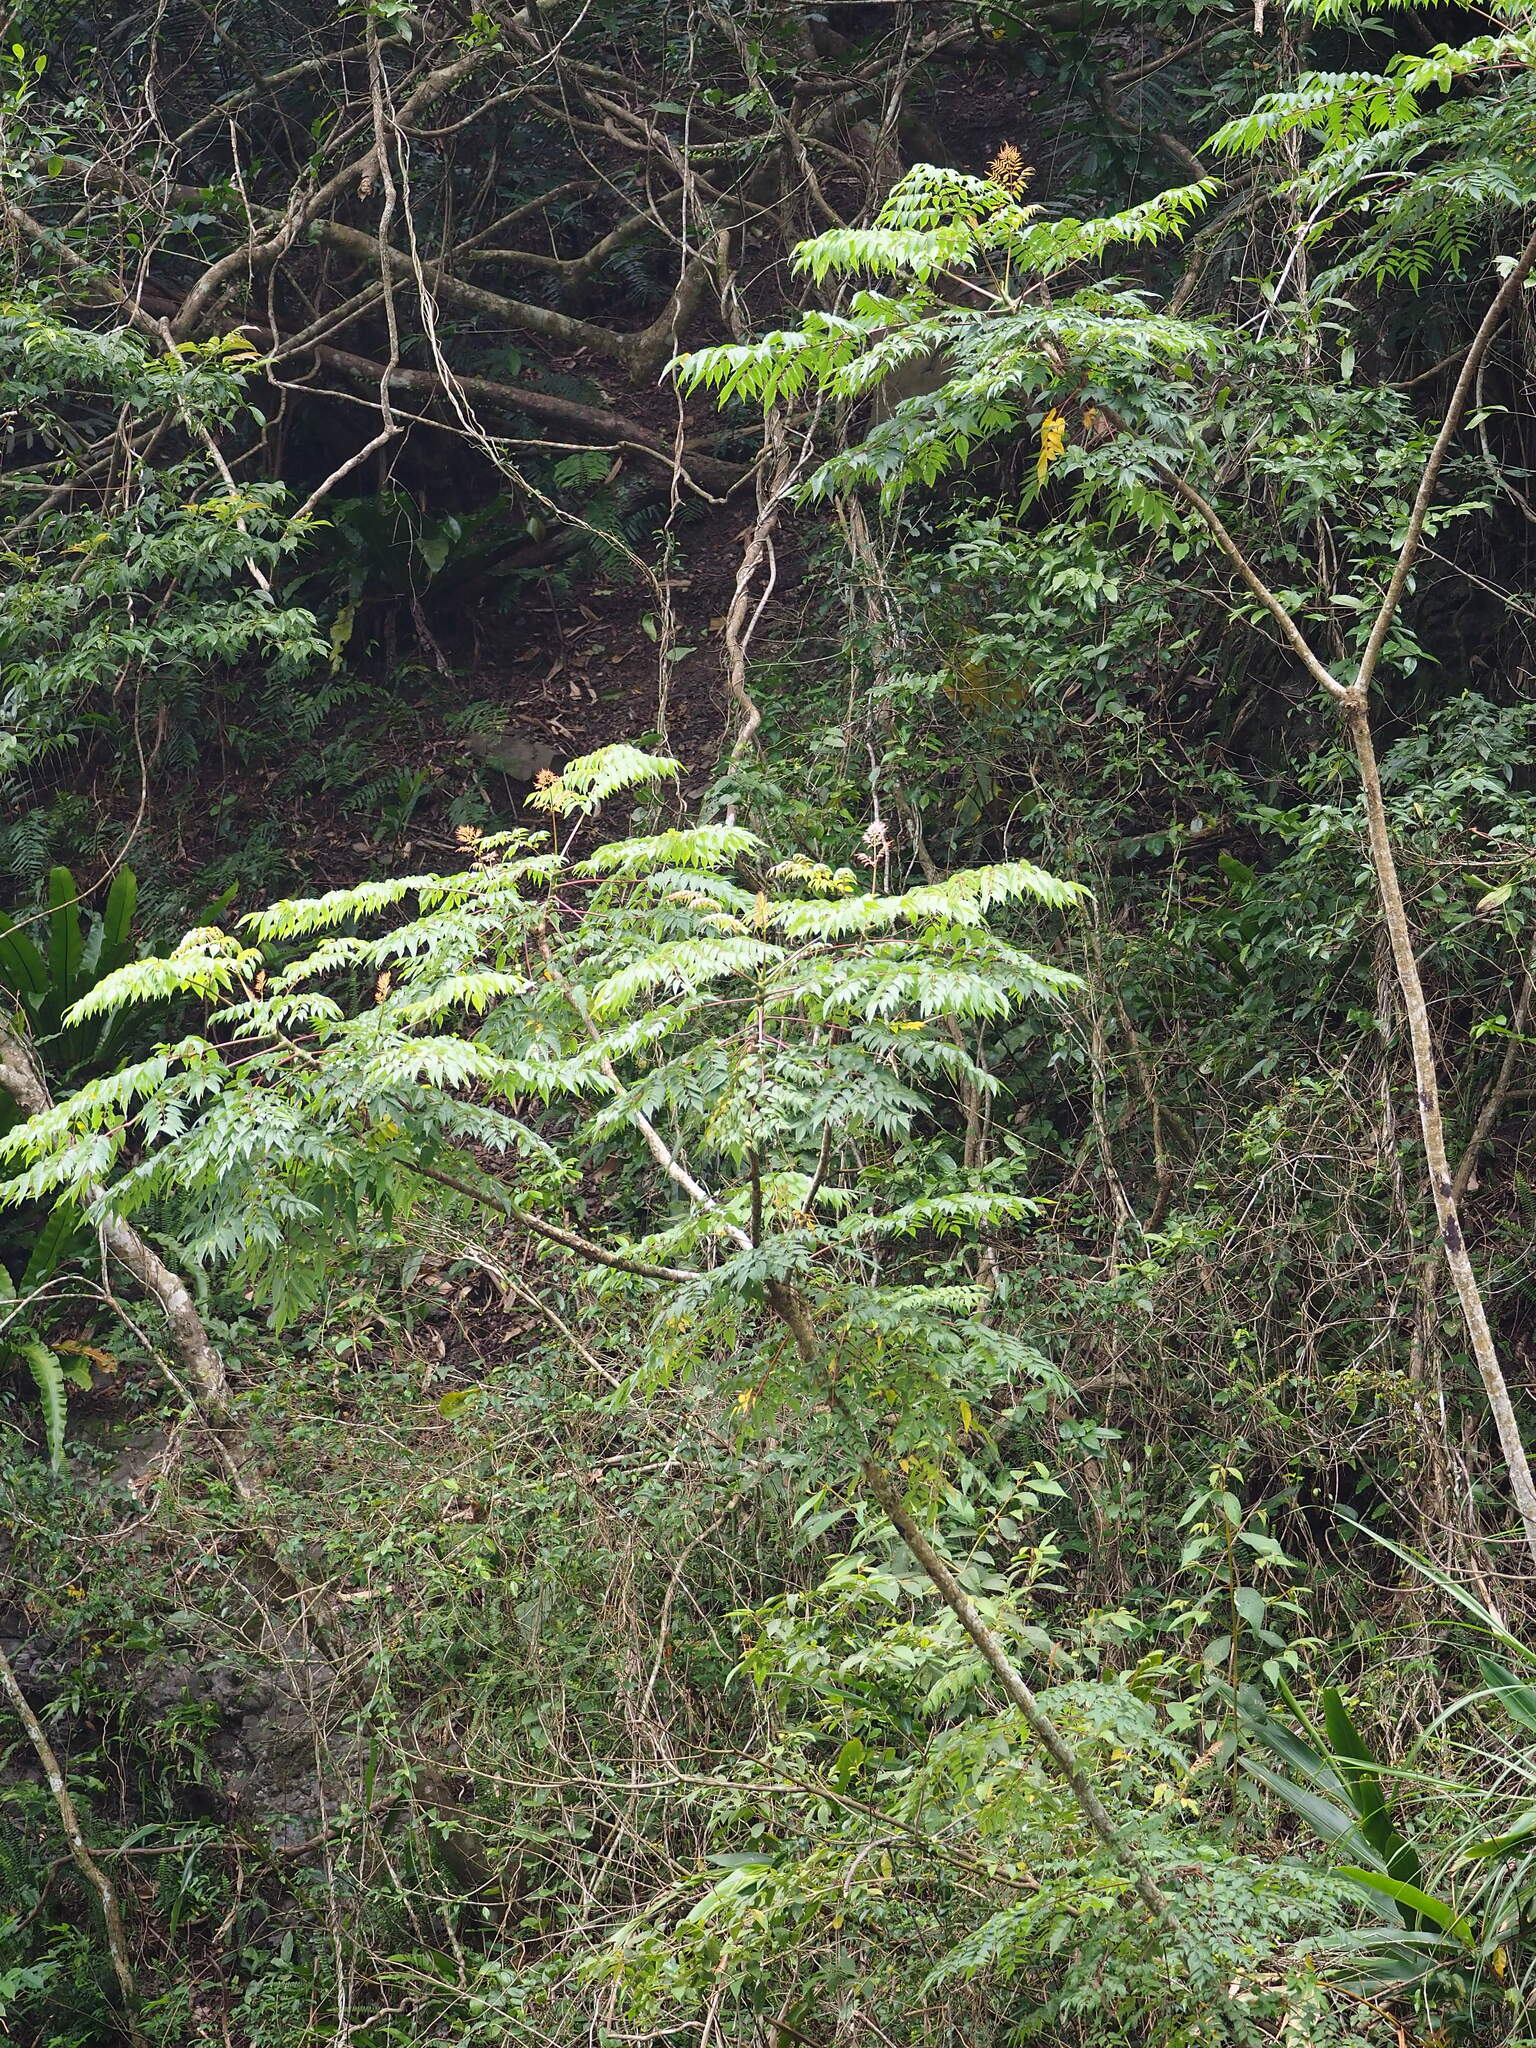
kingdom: Plantae
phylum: Tracheophyta
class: Magnoliopsida
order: Apiales
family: Araliaceae
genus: Aralia
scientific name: Aralia bipinnata
